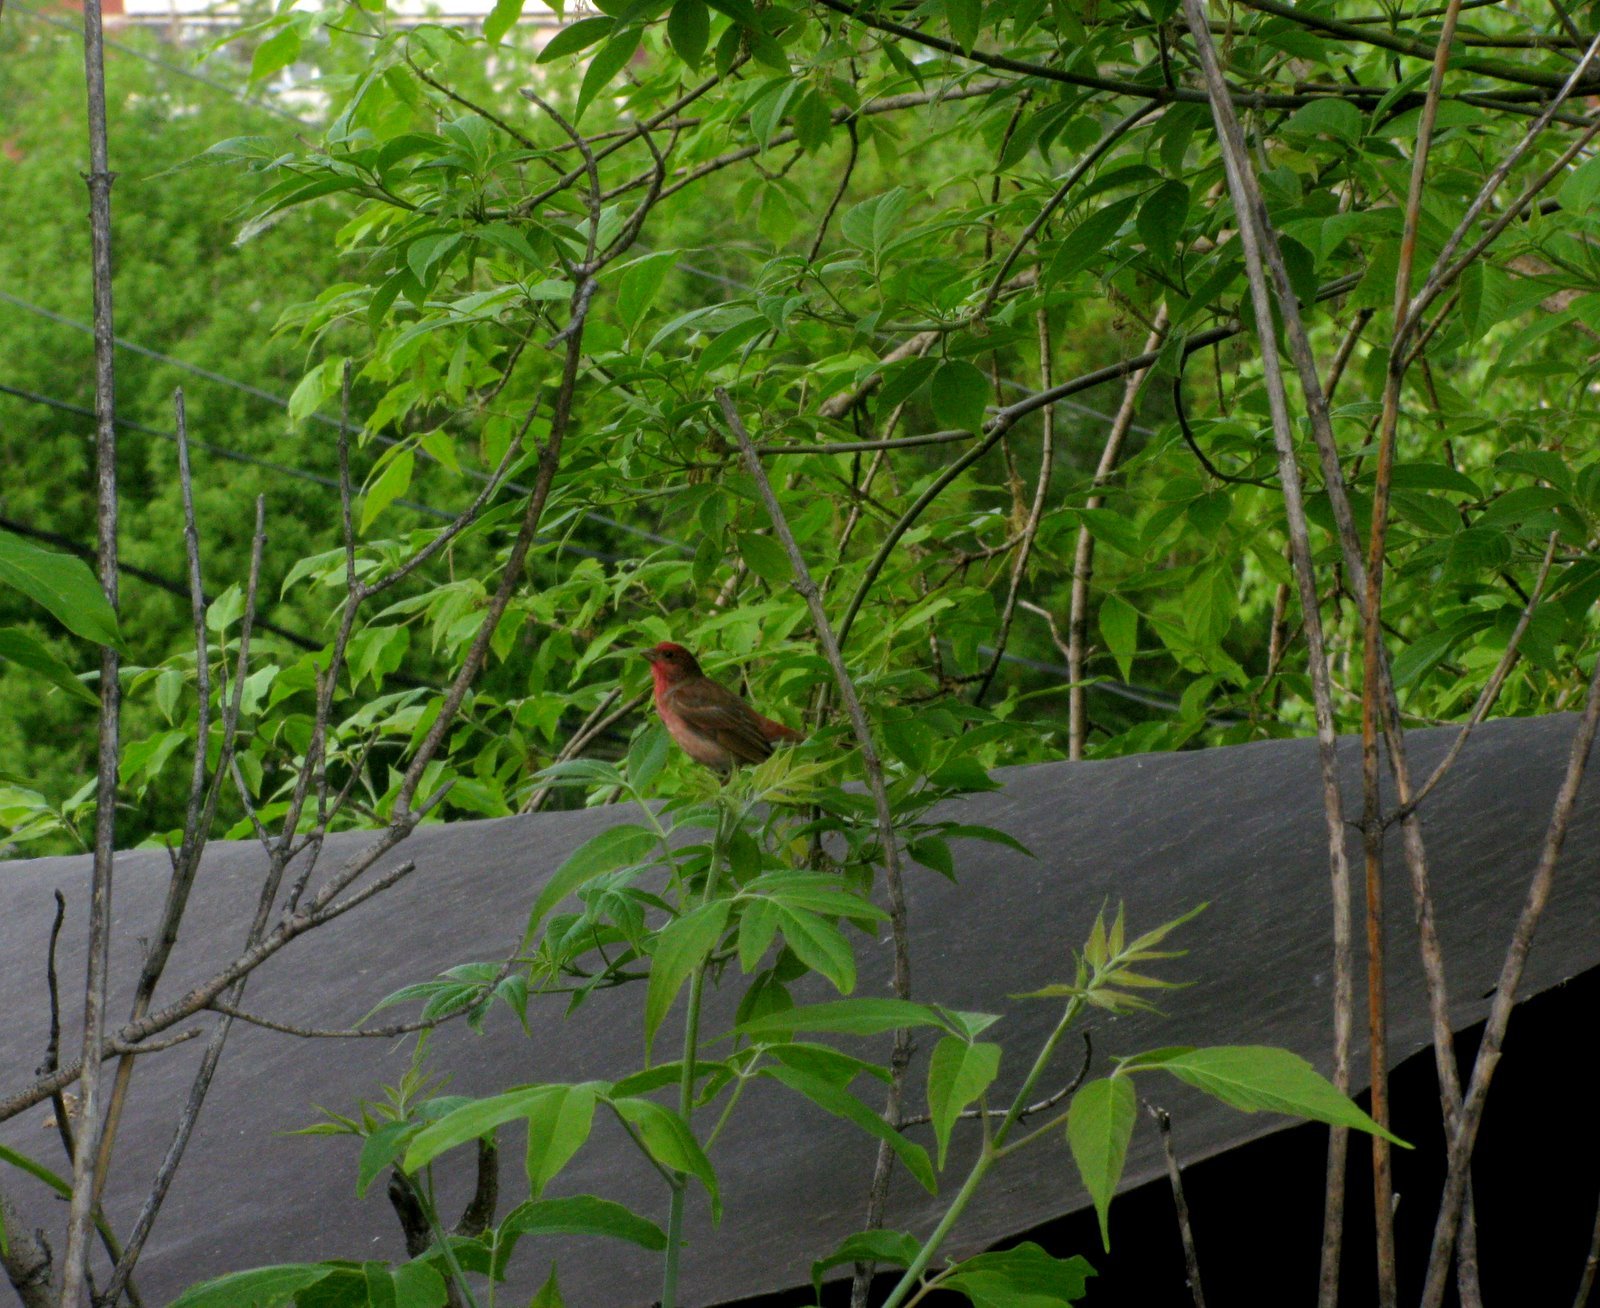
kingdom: Animalia
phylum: Chordata
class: Aves
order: Passeriformes
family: Fringillidae
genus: Carpodacus
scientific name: Carpodacus erythrinus
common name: Common rosefinch
